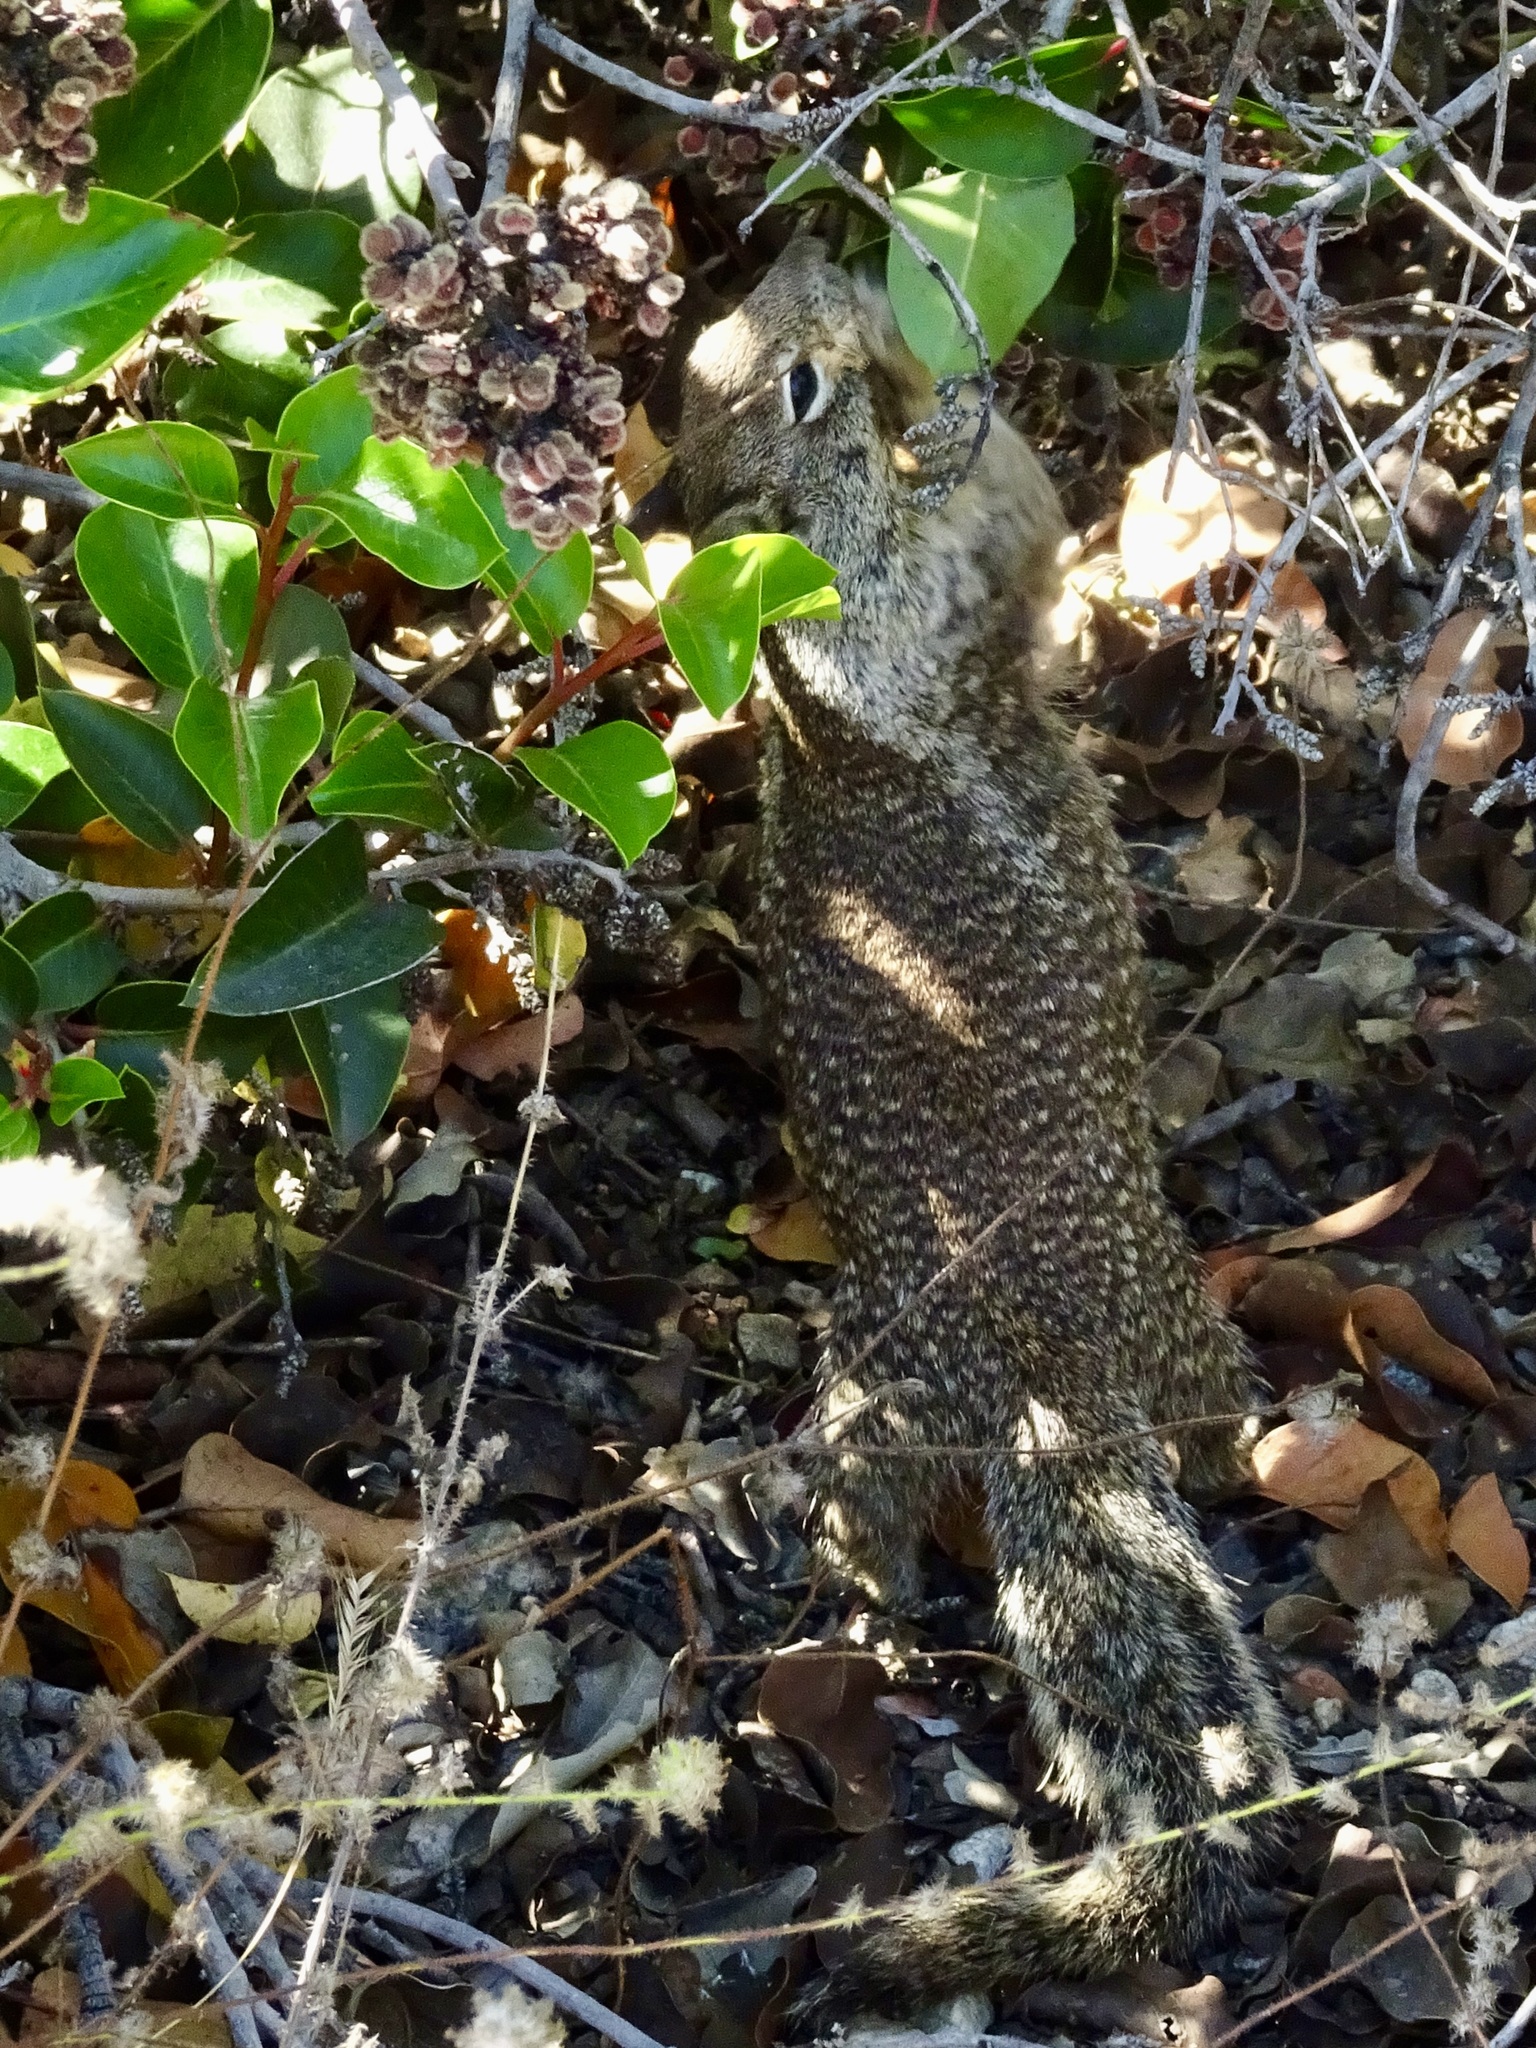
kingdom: Animalia
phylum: Chordata
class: Mammalia
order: Rodentia
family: Sciuridae
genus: Otospermophilus
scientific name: Otospermophilus beecheyi
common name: California ground squirrel
